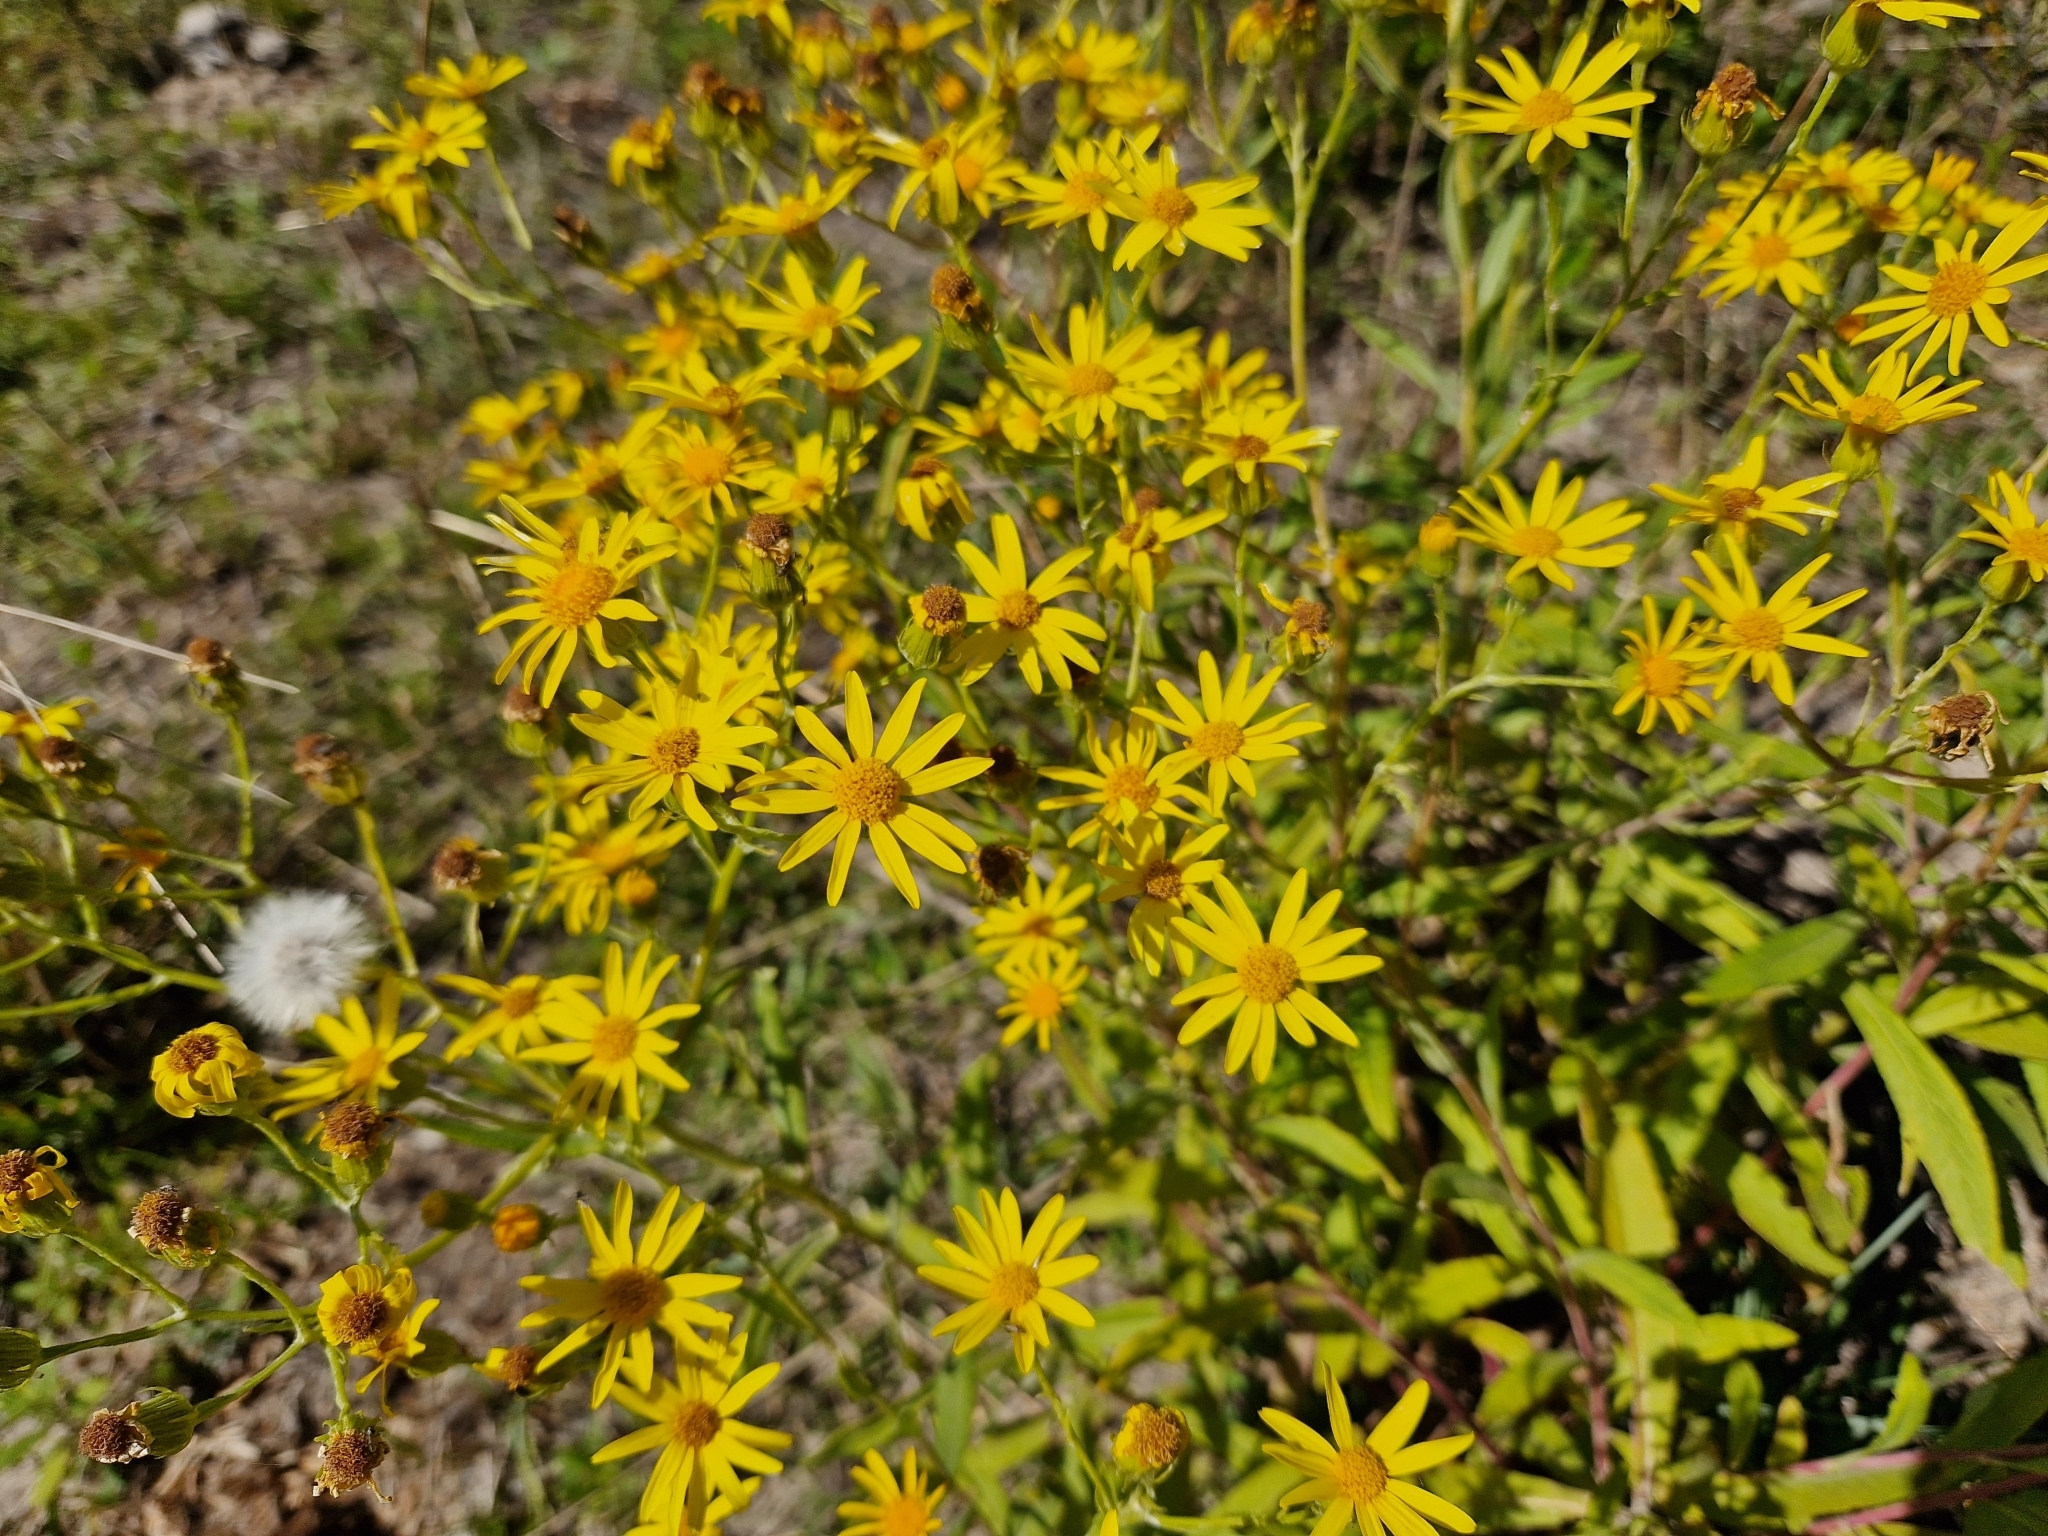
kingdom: Plantae
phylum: Tracheophyta
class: Magnoliopsida
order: Asterales
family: Asteraceae
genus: Senecio
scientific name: Senecio pterophorus
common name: Shoddy ragwort
